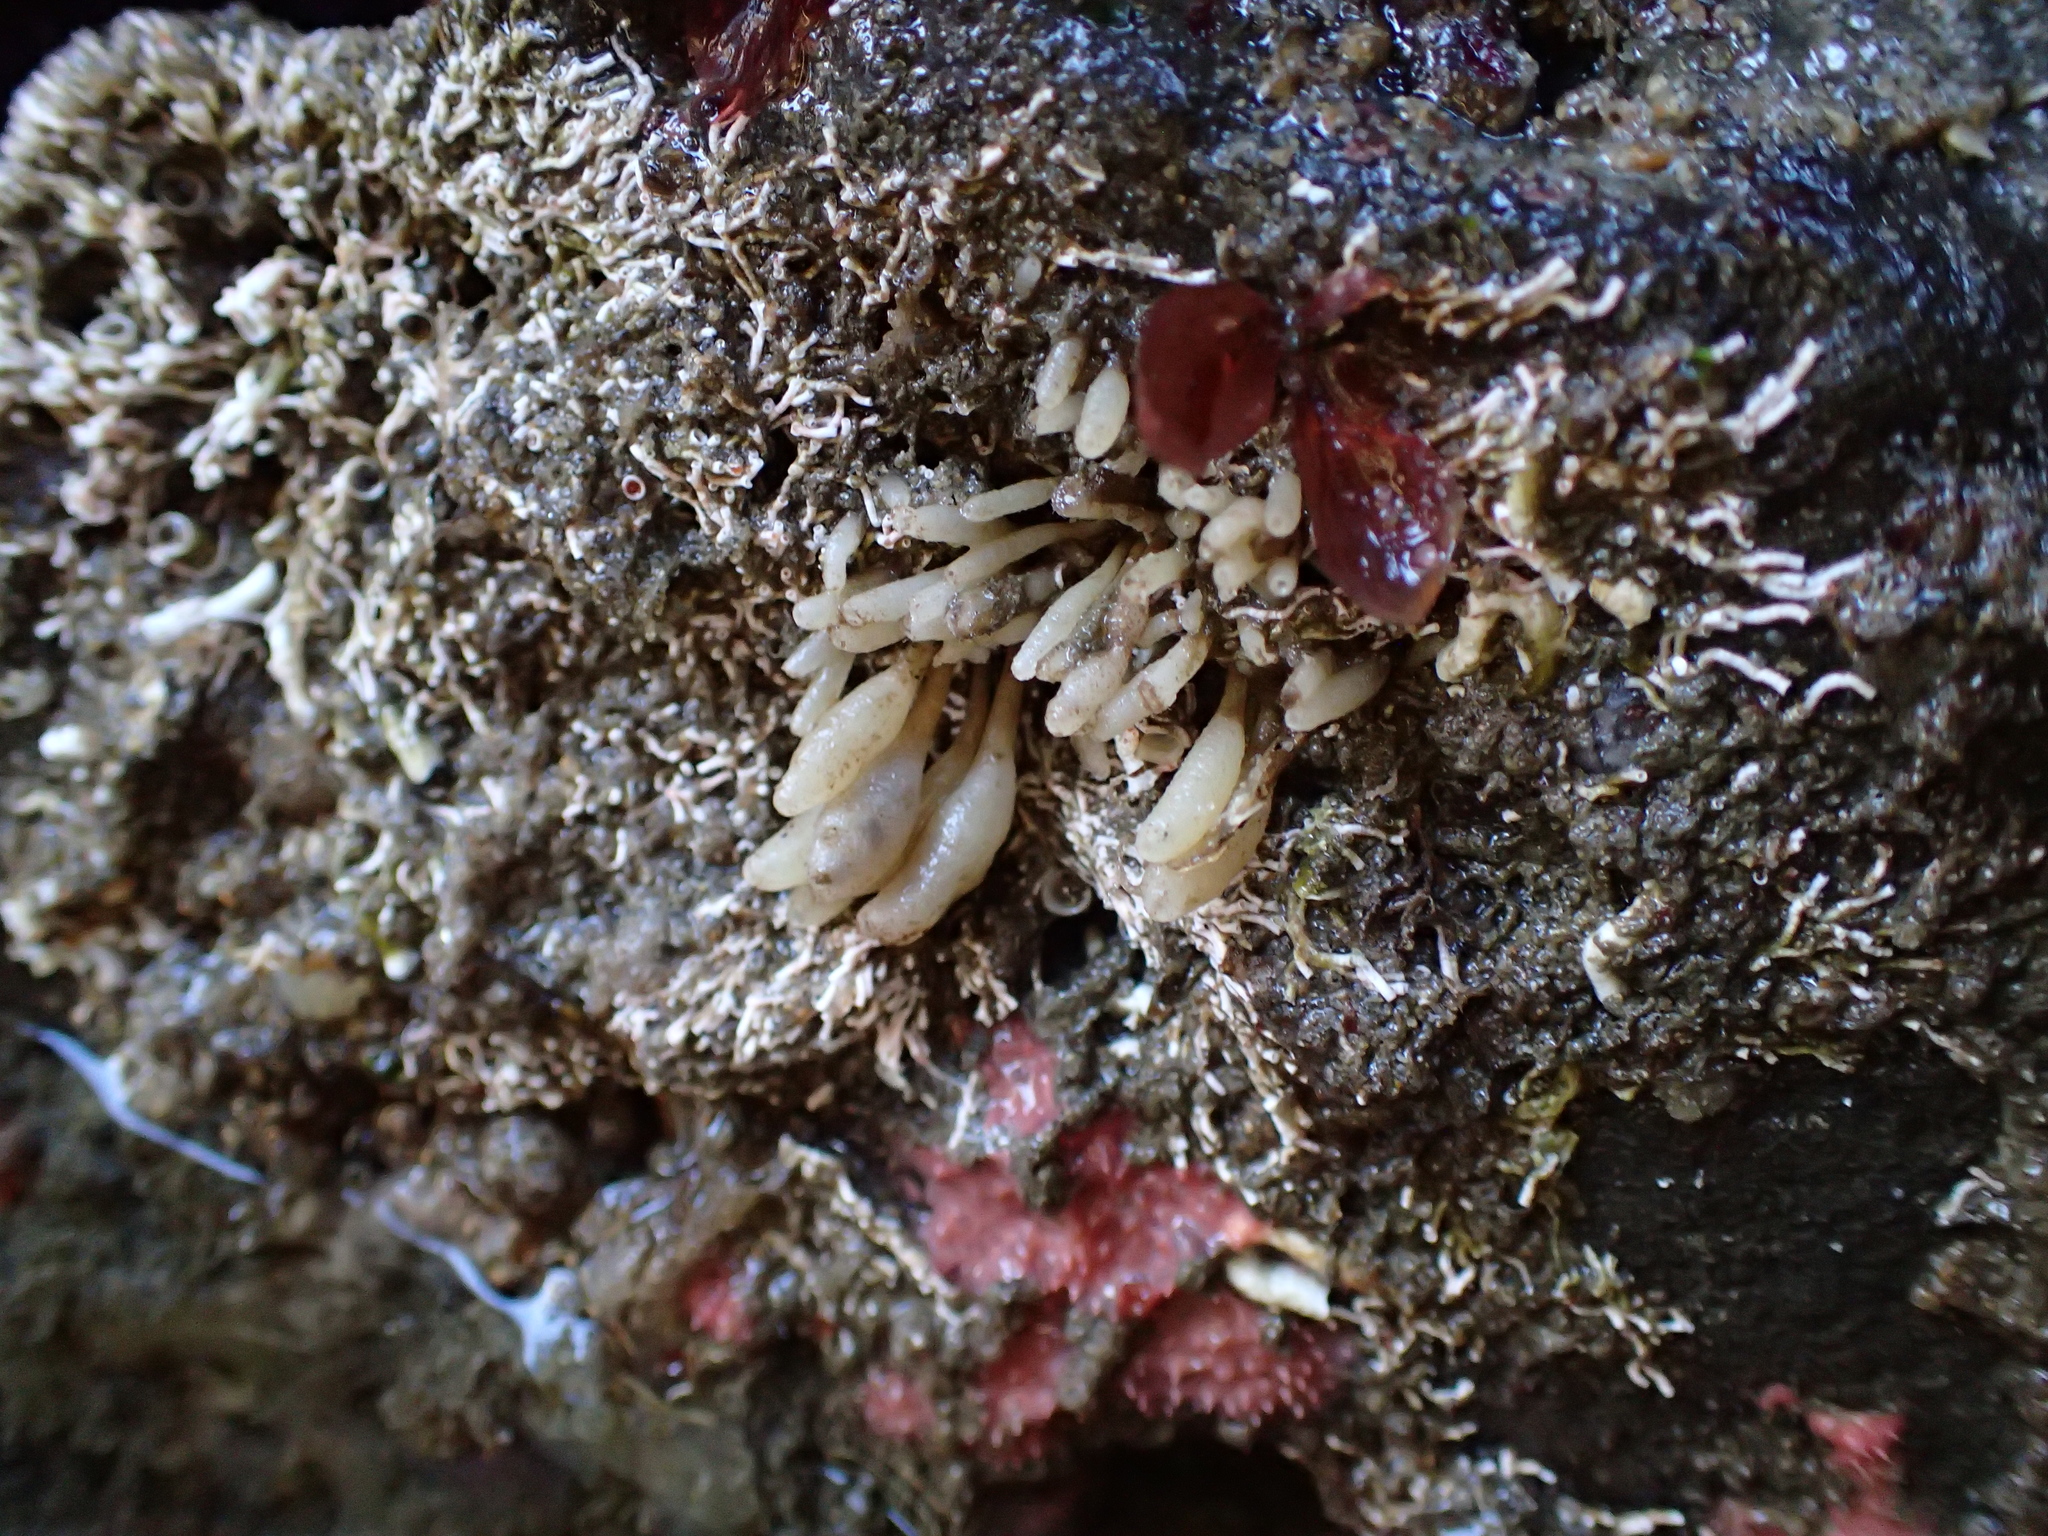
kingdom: Animalia
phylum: Porifera
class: Calcarea
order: Leucosolenida
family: Amphoriscidae
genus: Leucilla
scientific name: Leucilla nuttingi
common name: Nutting's sponge
